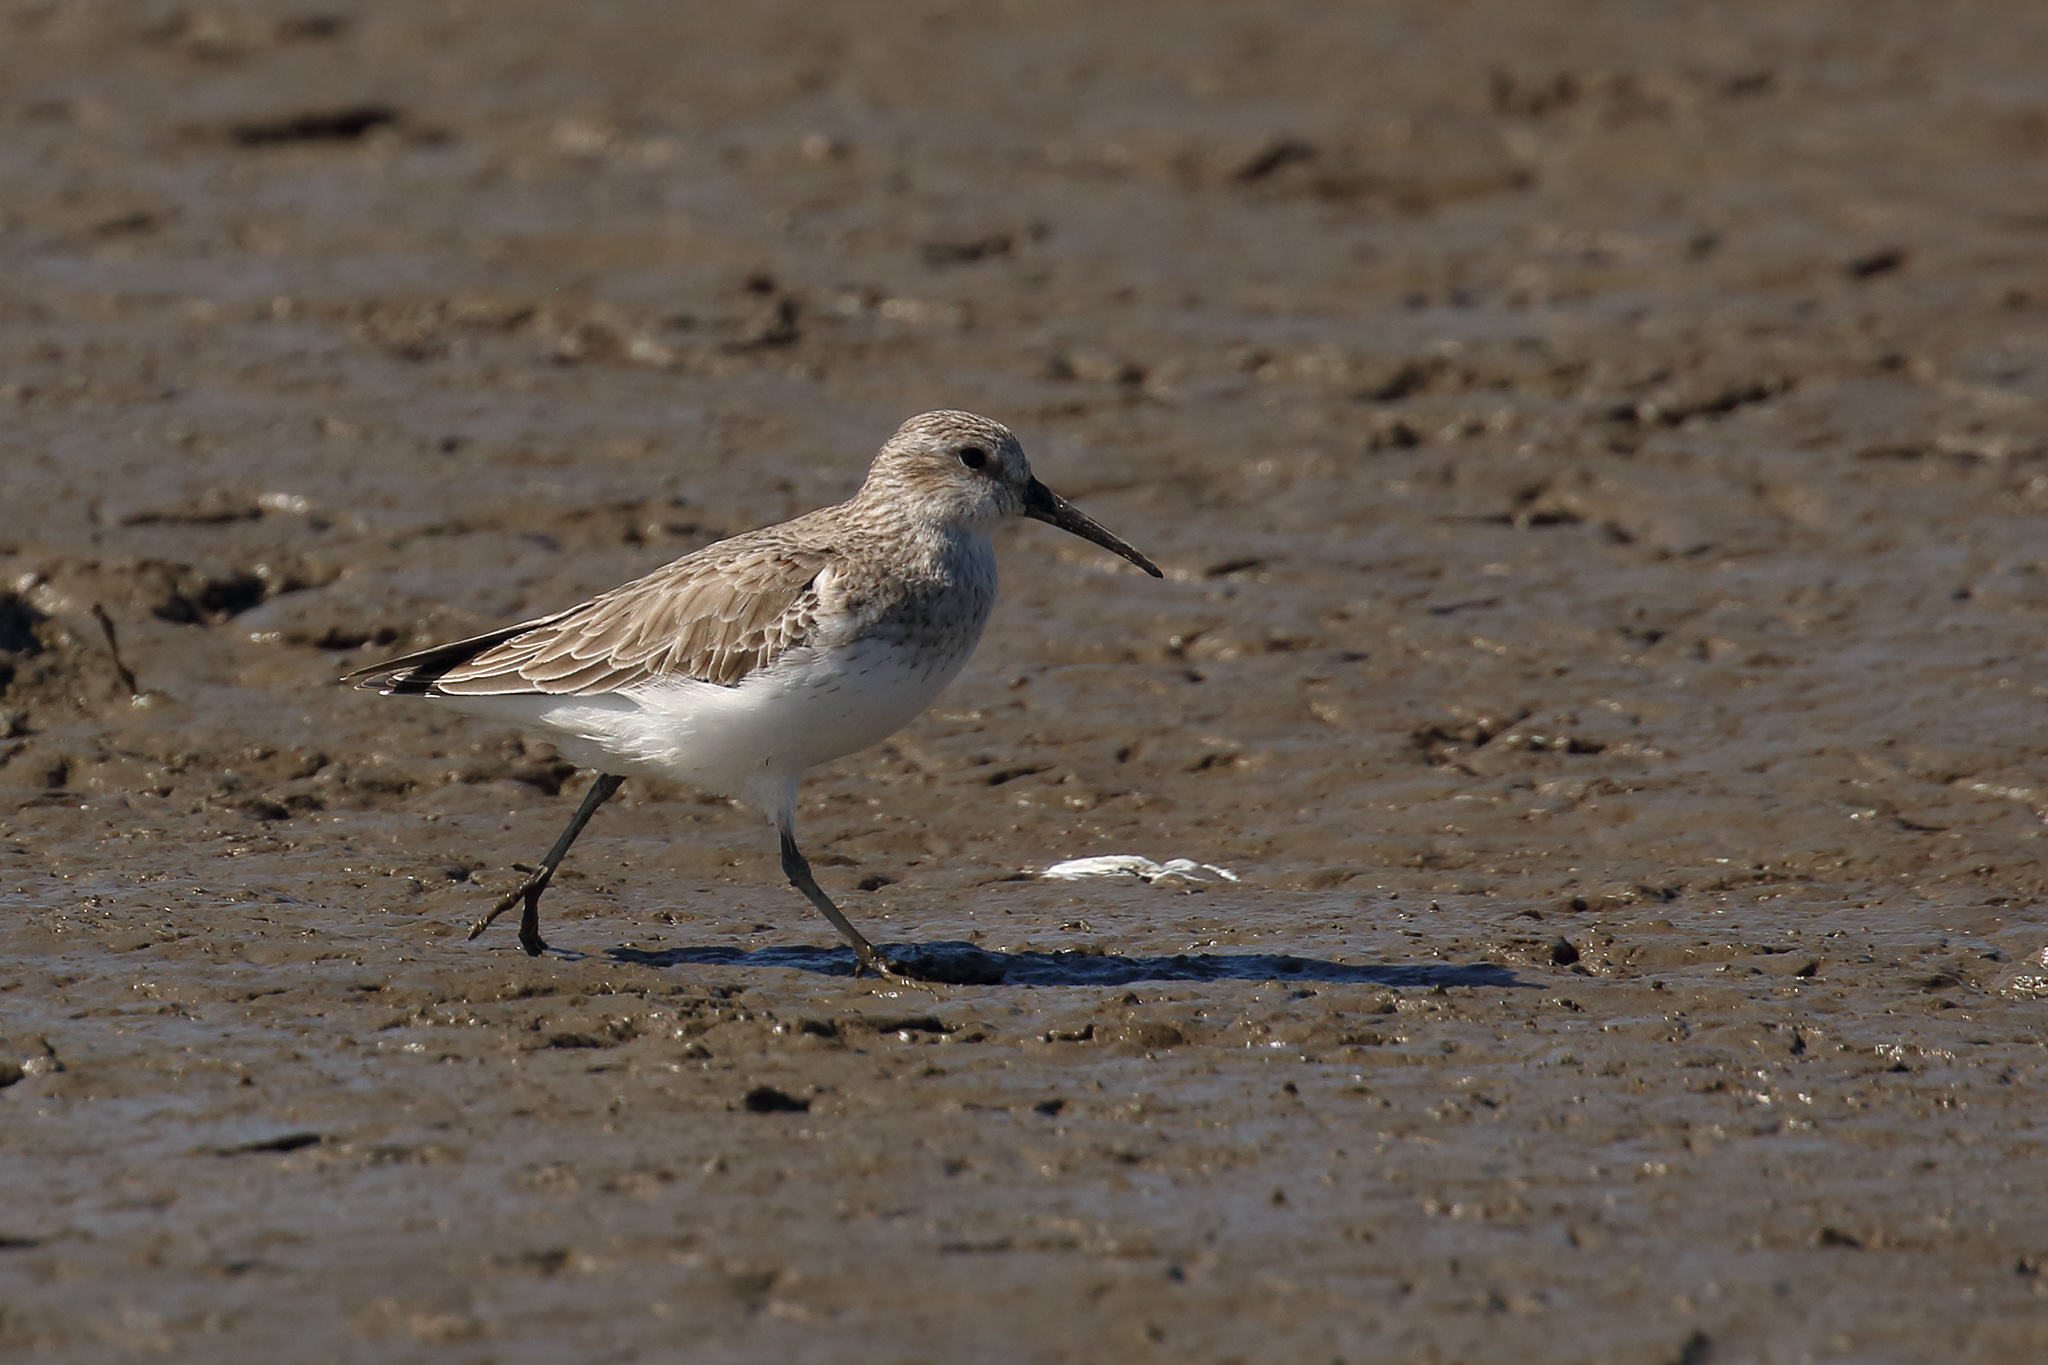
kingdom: Animalia
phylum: Chordata
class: Aves
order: Charadriiformes
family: Scolopacidae
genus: Calidris
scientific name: Calidris alpina
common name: Dunlin
